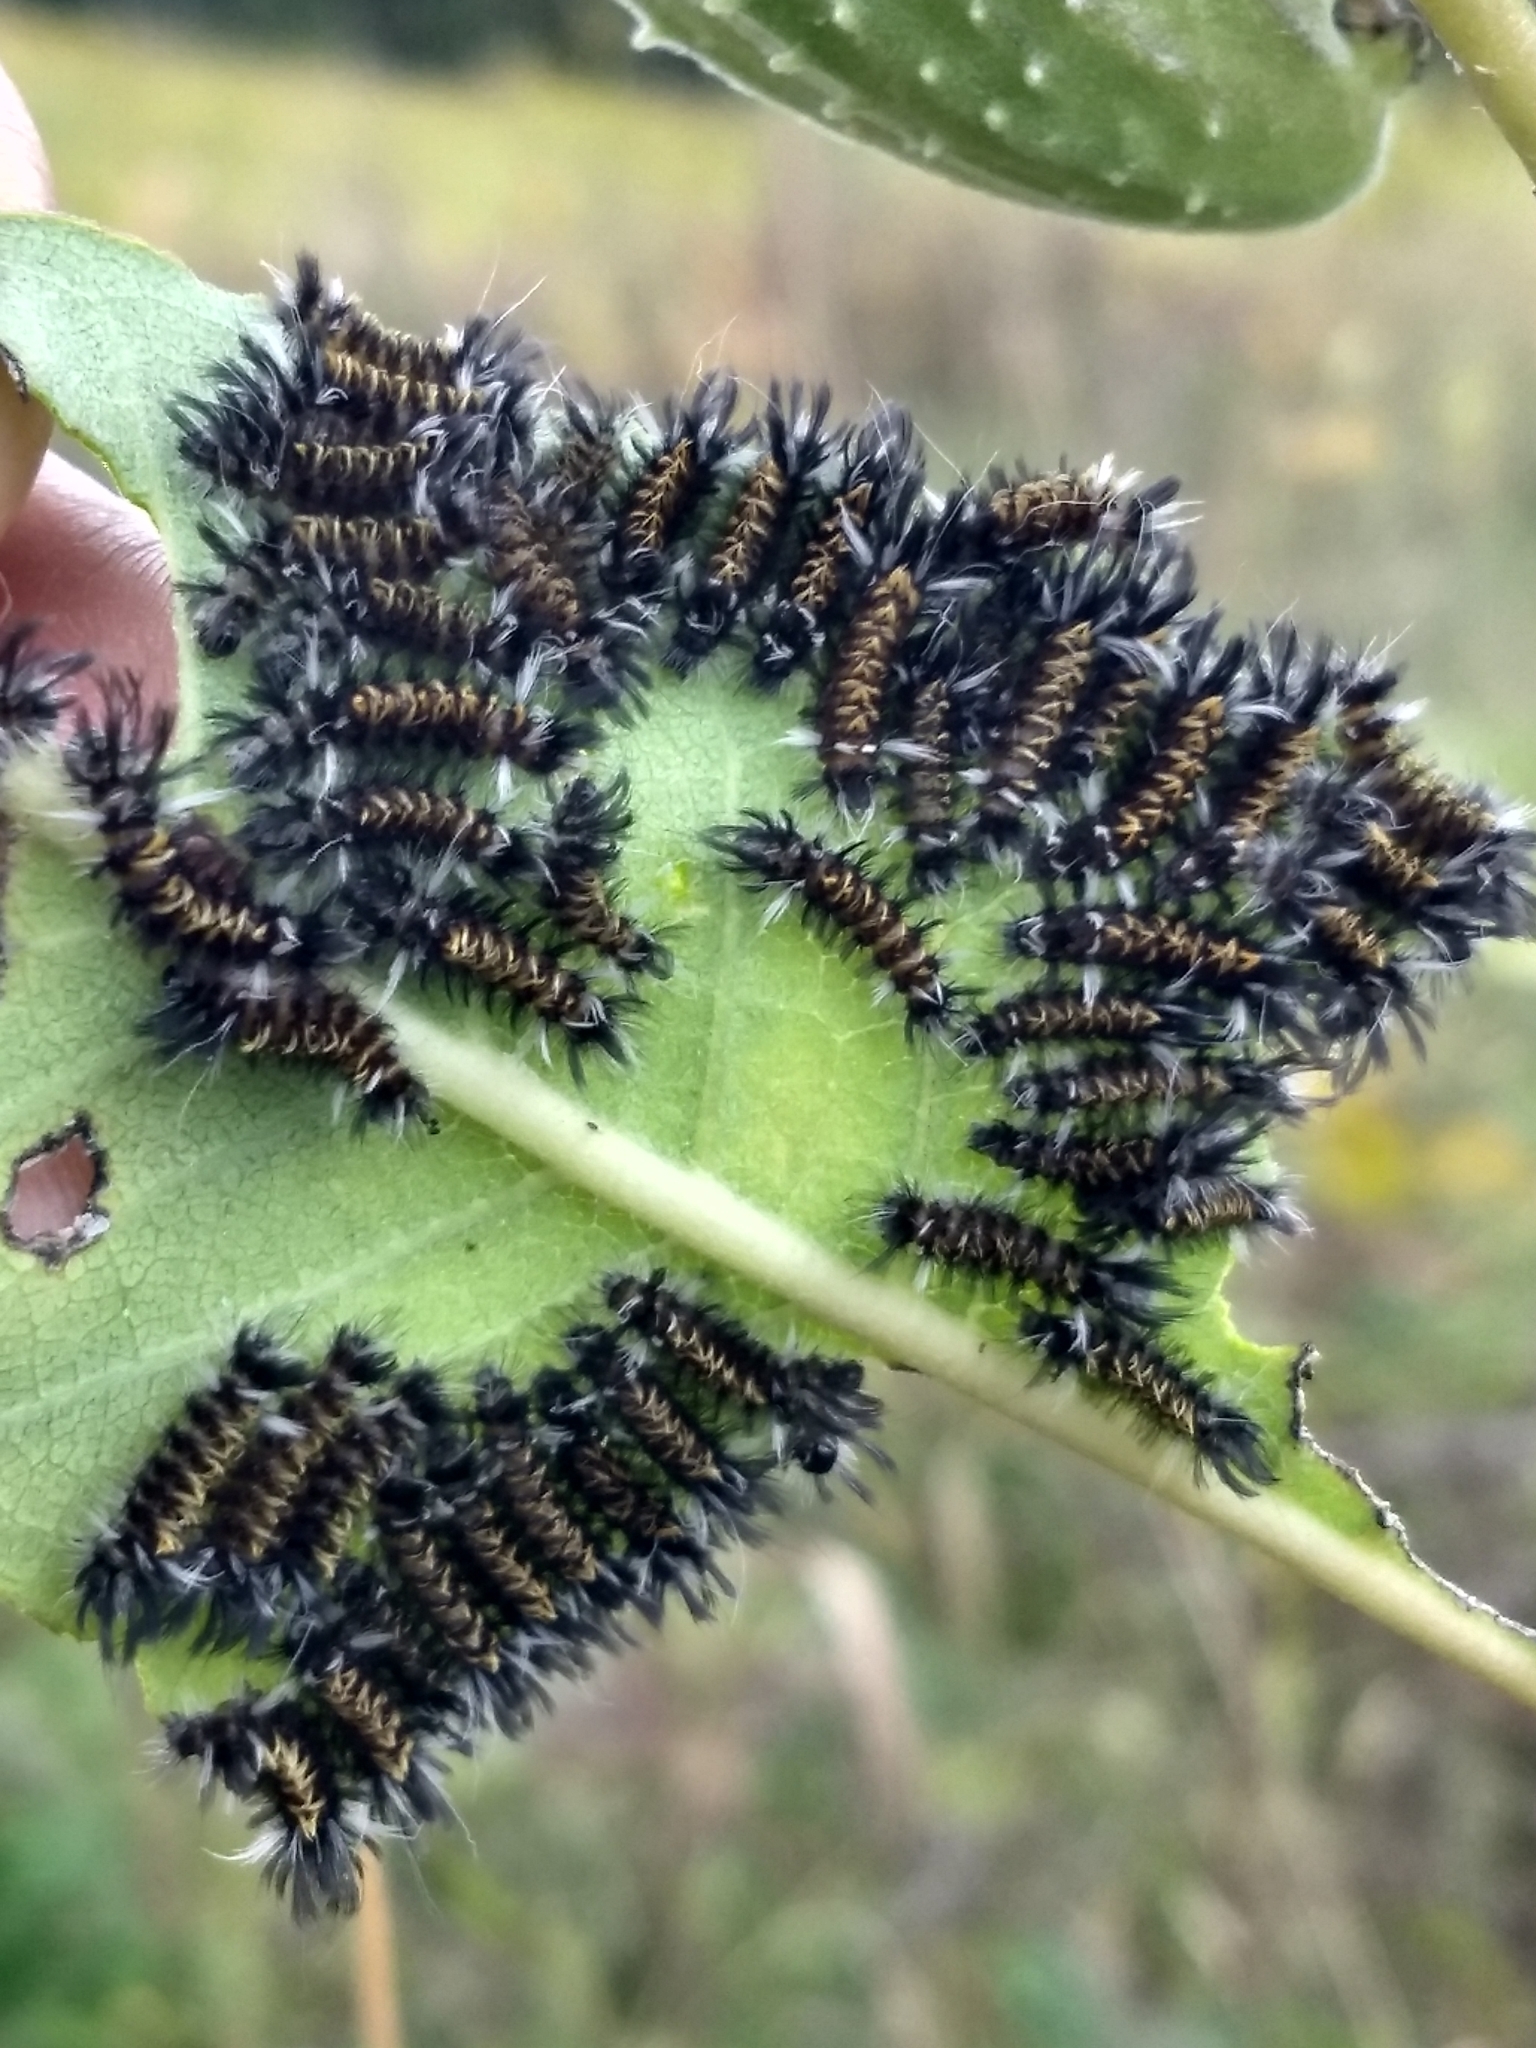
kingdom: Animalia
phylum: Arthropoda
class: Insecta
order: Lepidoptera
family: Erebidae
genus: Euchaetes
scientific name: Euchaetes egle
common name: Milkweed tussock moth
